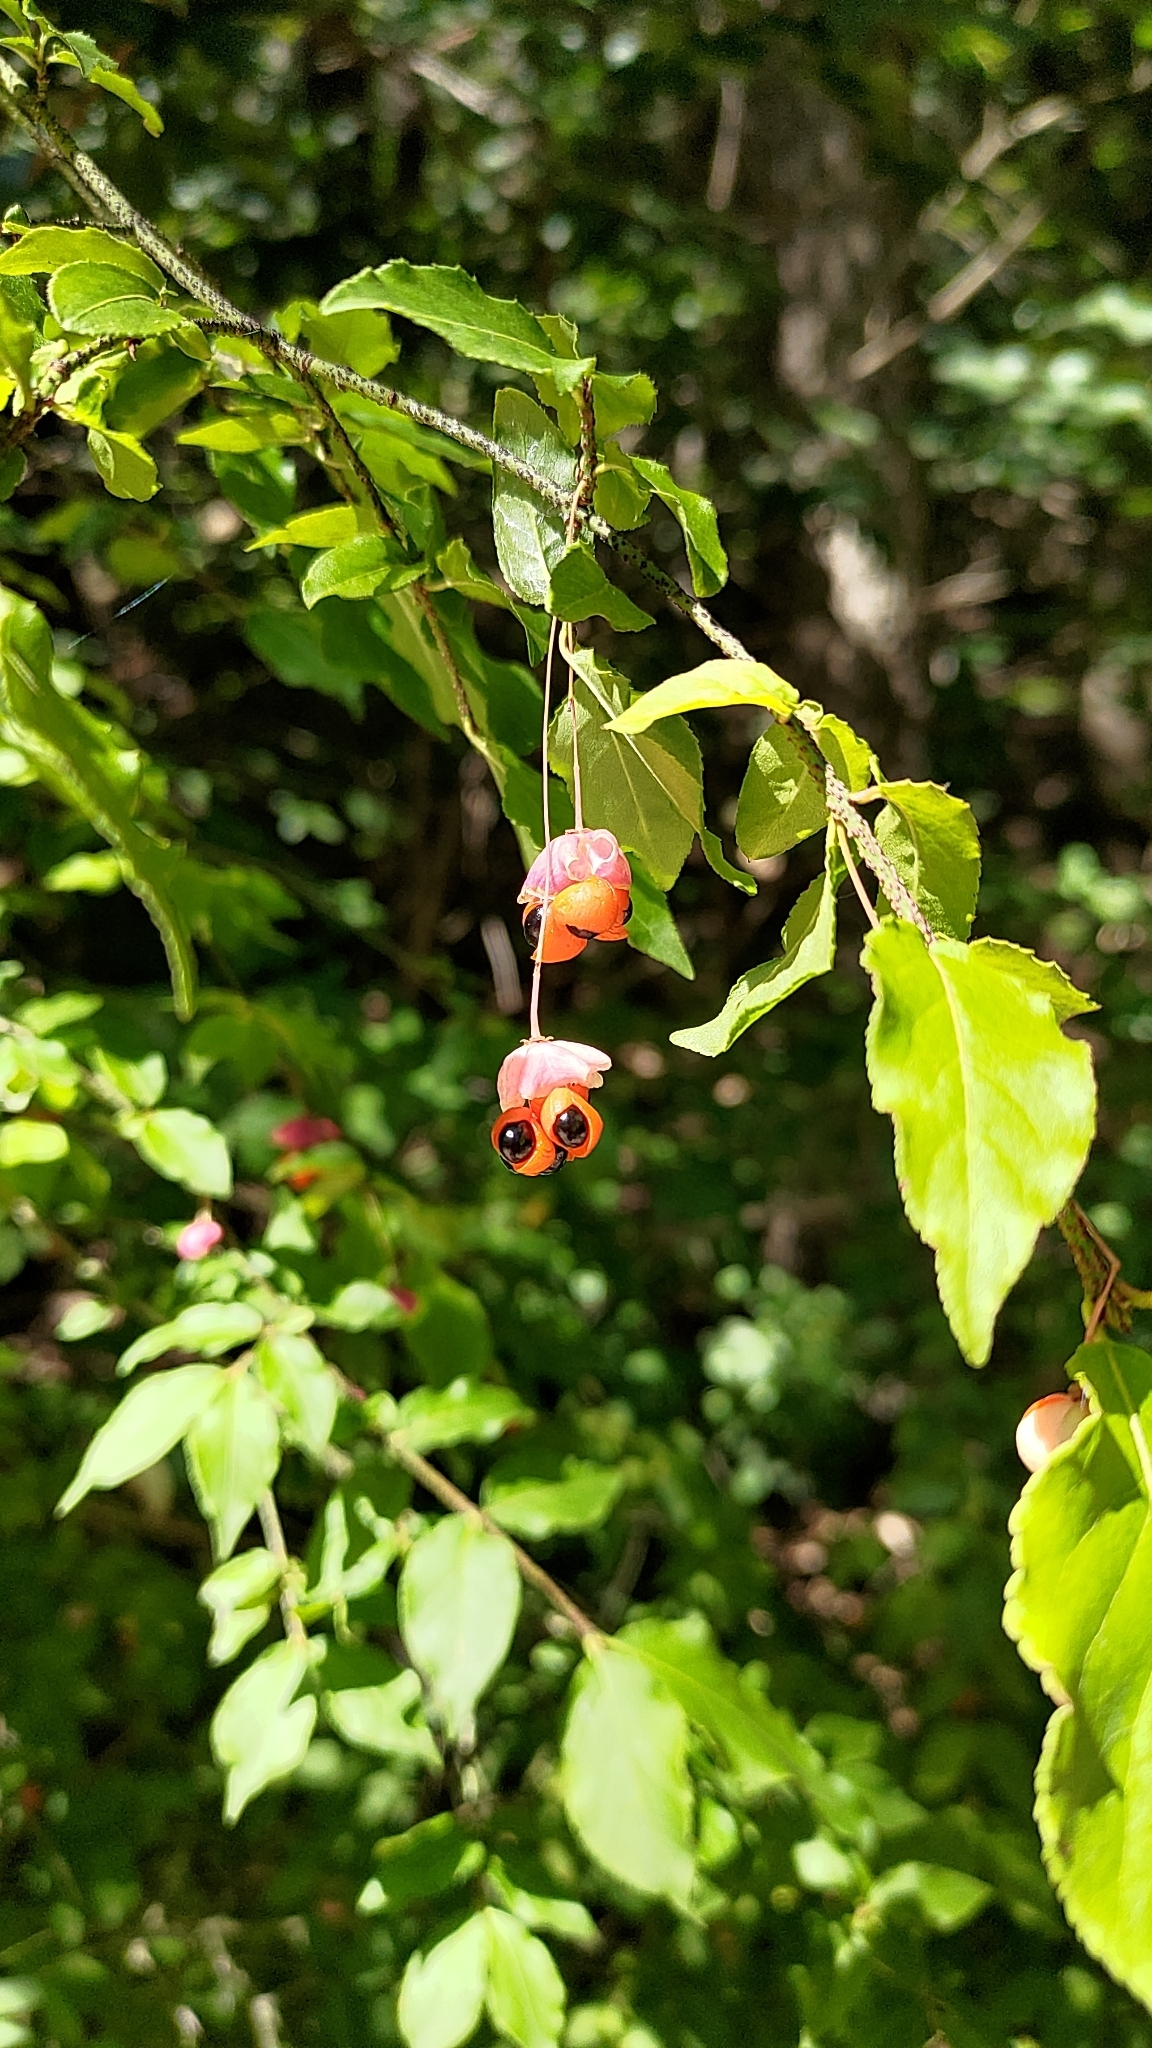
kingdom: Plantae
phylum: Tracheophyta
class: Magnoliopsida
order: Celastrales
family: Celastraceae
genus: Euonymus
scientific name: Euonymus verrucosus
